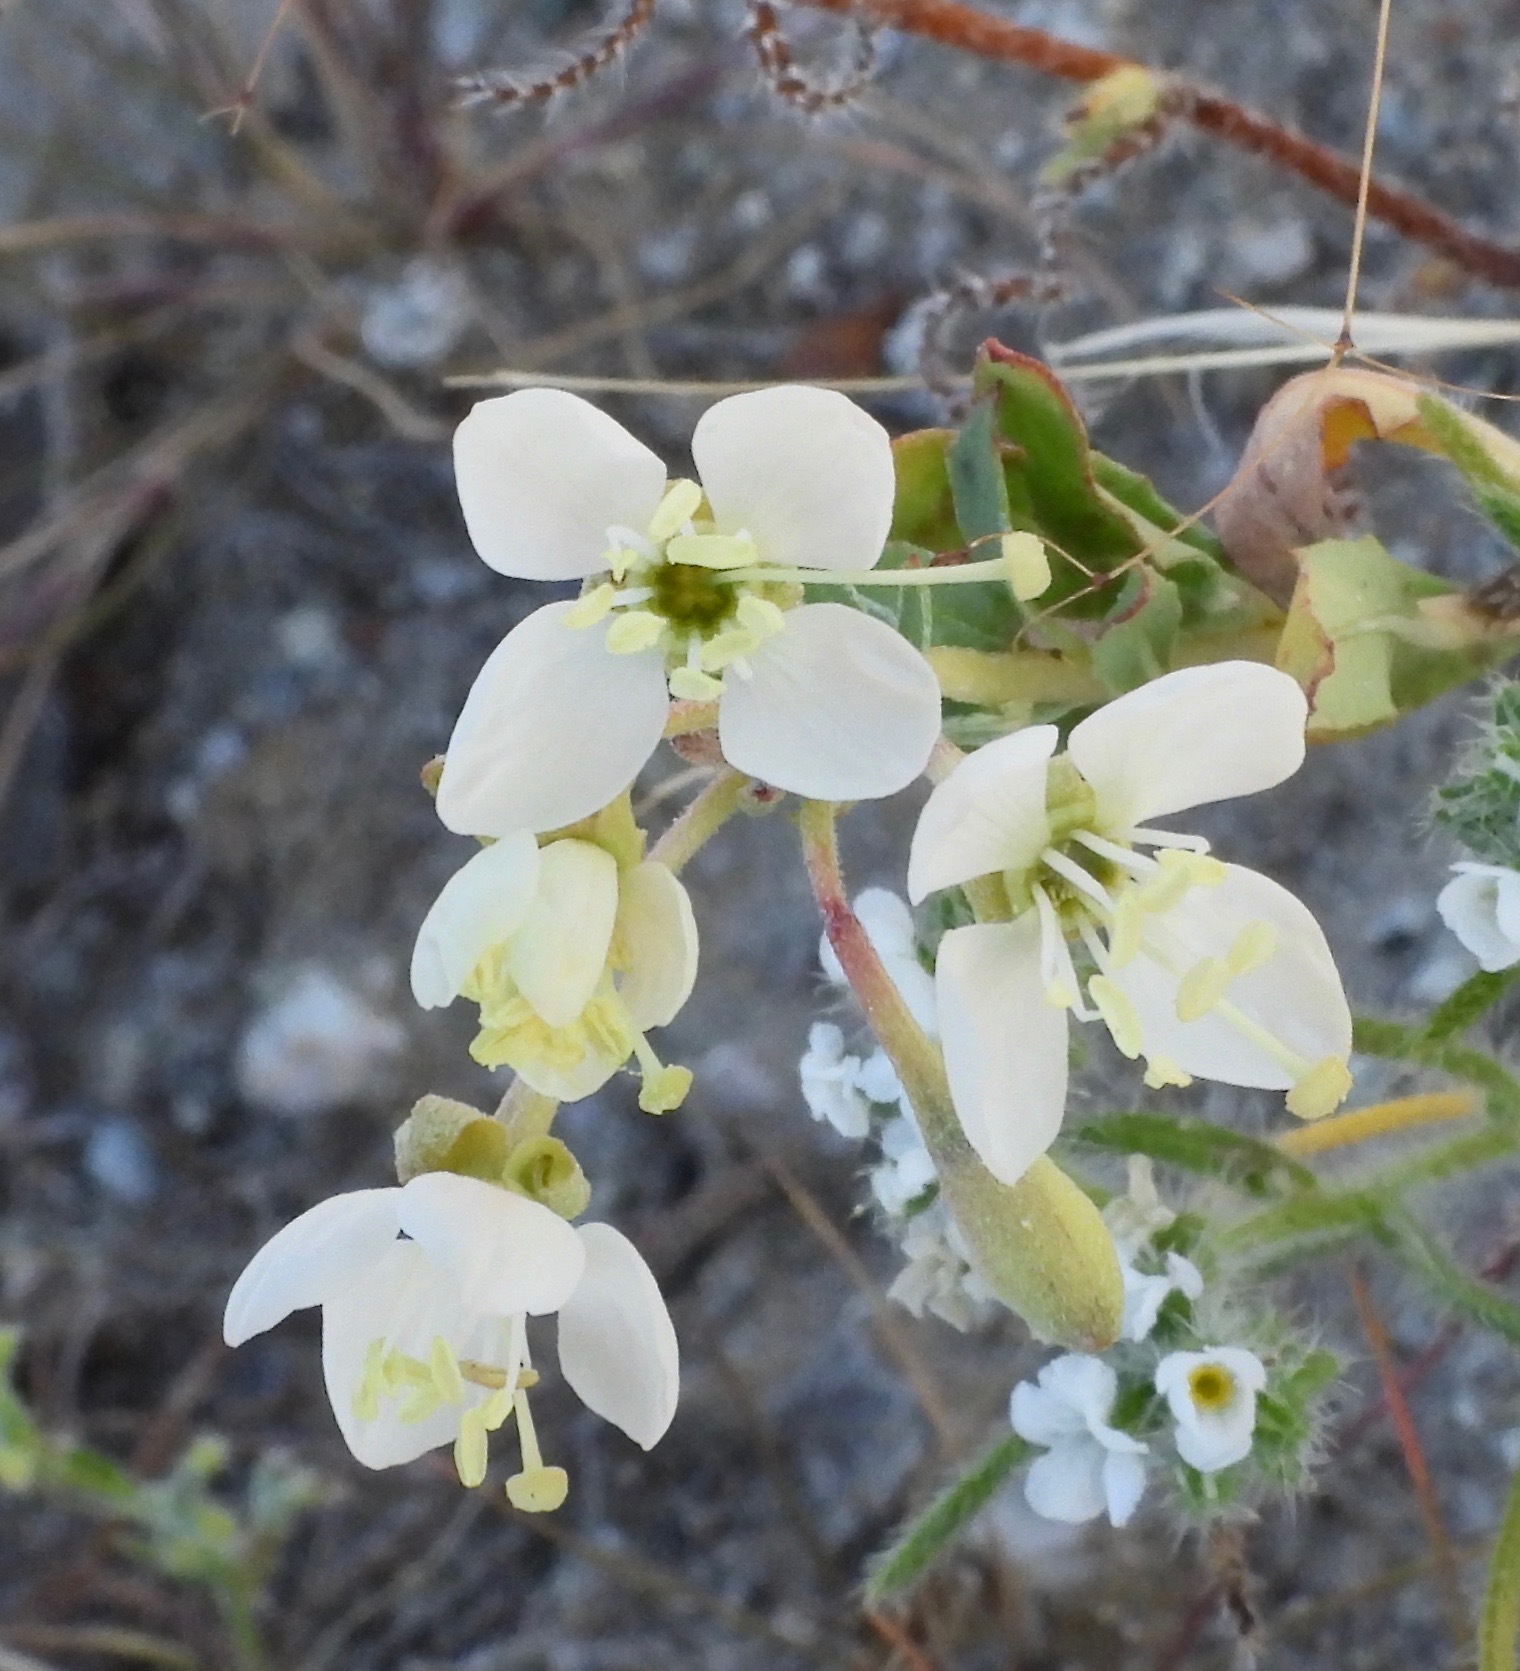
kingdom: Plantae
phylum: Tracheophyta
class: Magnoliopsida
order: Myrtales
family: Onagraceae
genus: Eremothera
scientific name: Eremothera boothii
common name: Booth's evening primrose
